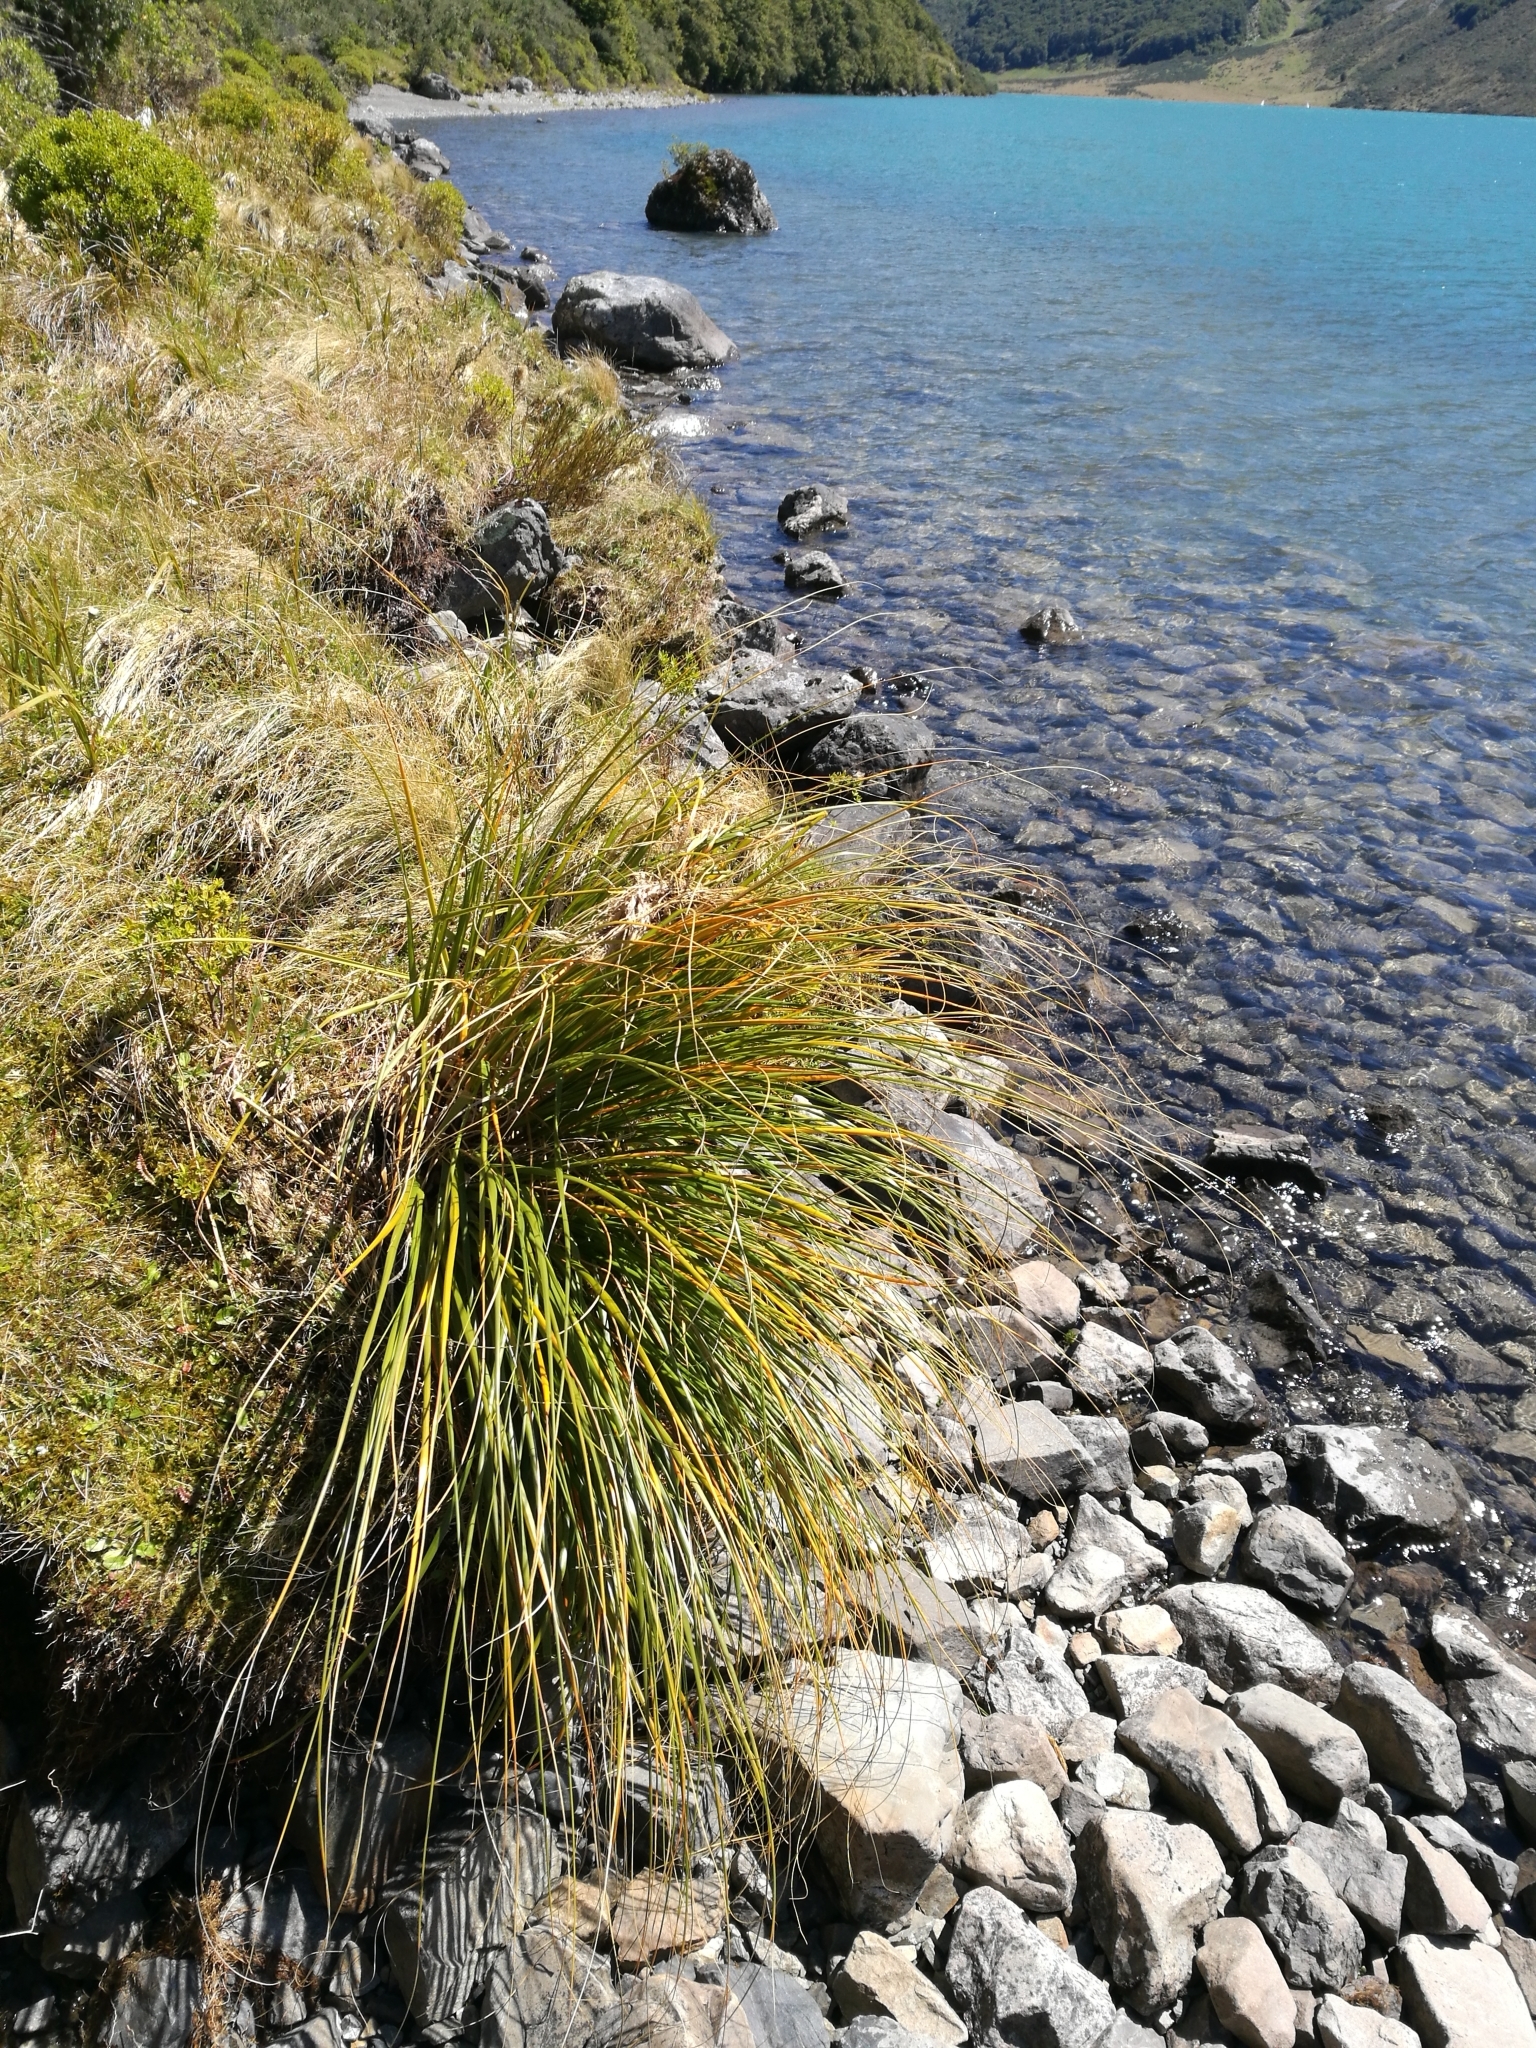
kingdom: Plantae
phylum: Tracheophyta
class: Liliopsida
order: Poales
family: Poaceae
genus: Chionochloa
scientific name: Chionochloa flavescens
